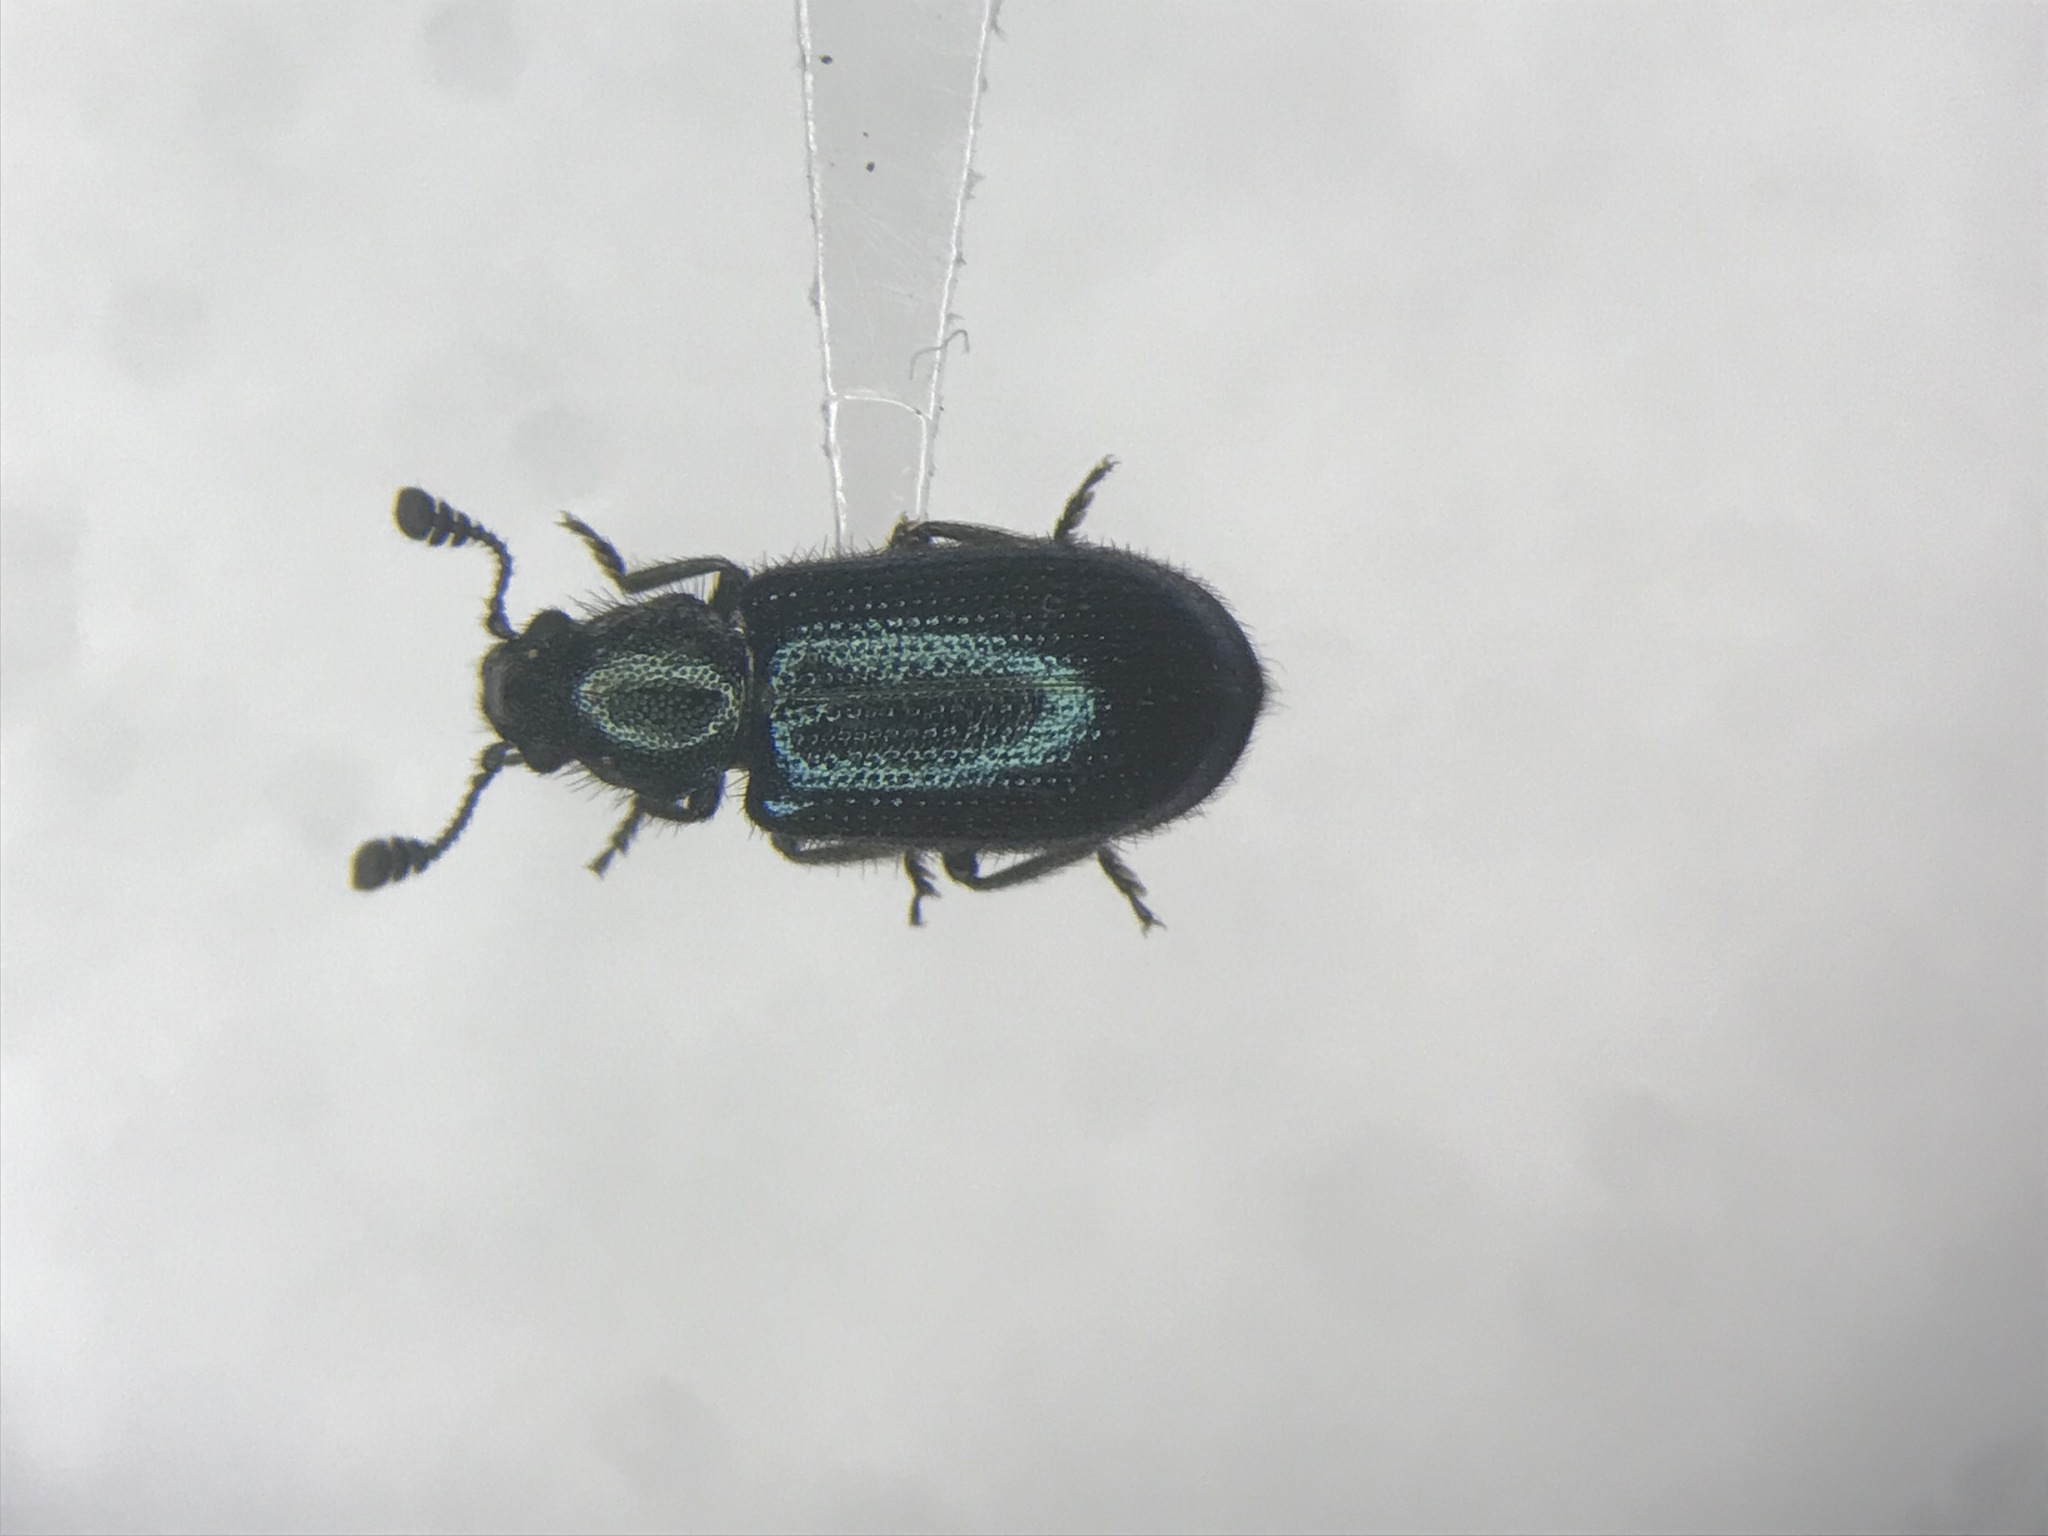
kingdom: Animalia
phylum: Arthropoda
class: Insecta
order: Coleoptera
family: Cleridae
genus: Necrobia
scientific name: Necrobia violacea
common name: Violet checkered beetle
